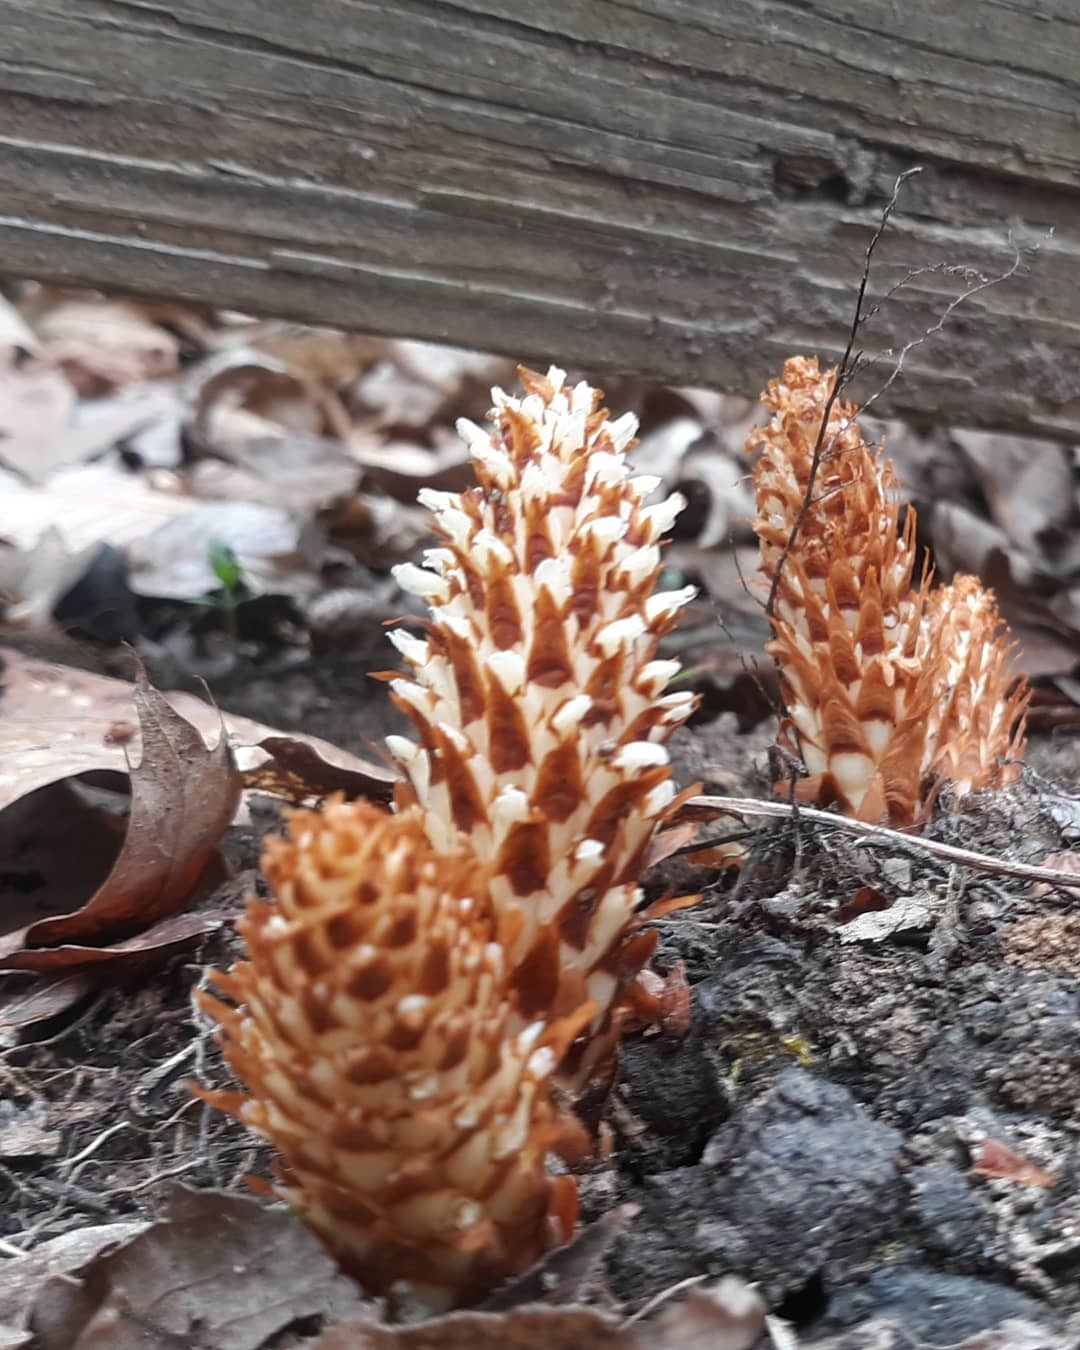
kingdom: Plantae
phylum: Tracheophyta
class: Magnoliopsida
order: Lamiales
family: Orobanchaceae
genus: Conopholis
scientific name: Conopholis americana
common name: American cancer-root
